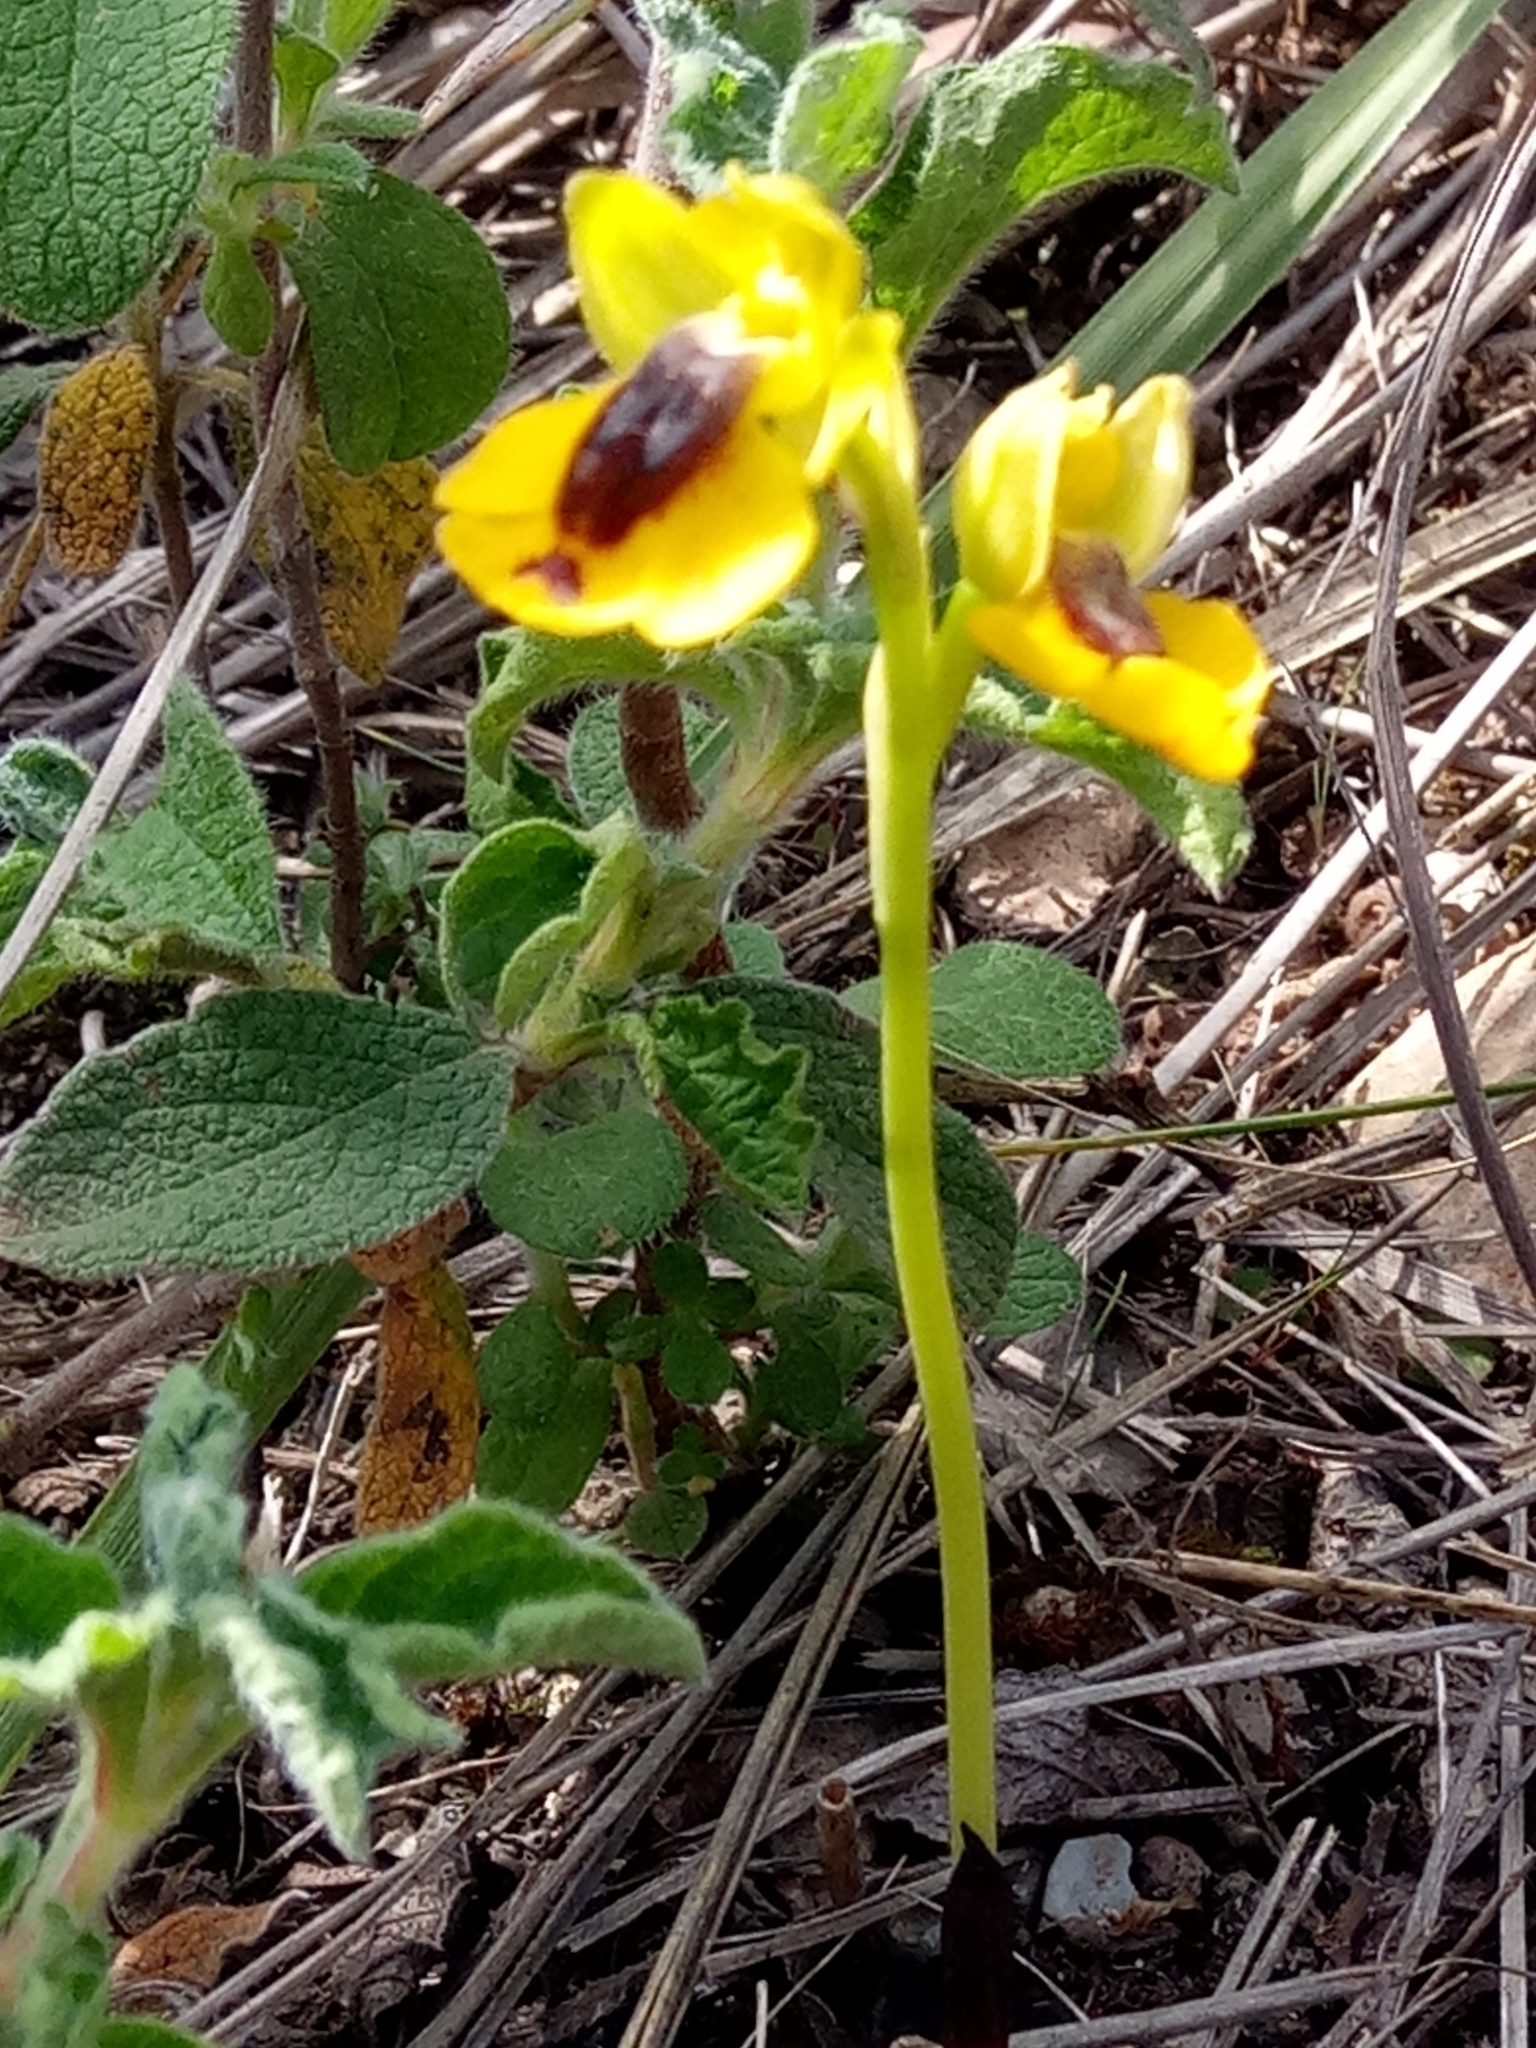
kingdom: Plantae
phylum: Tracheophyta
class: Liliopsida
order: Asparagales
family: Orchidaceae
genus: Ophrys
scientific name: Ophrys lutea
